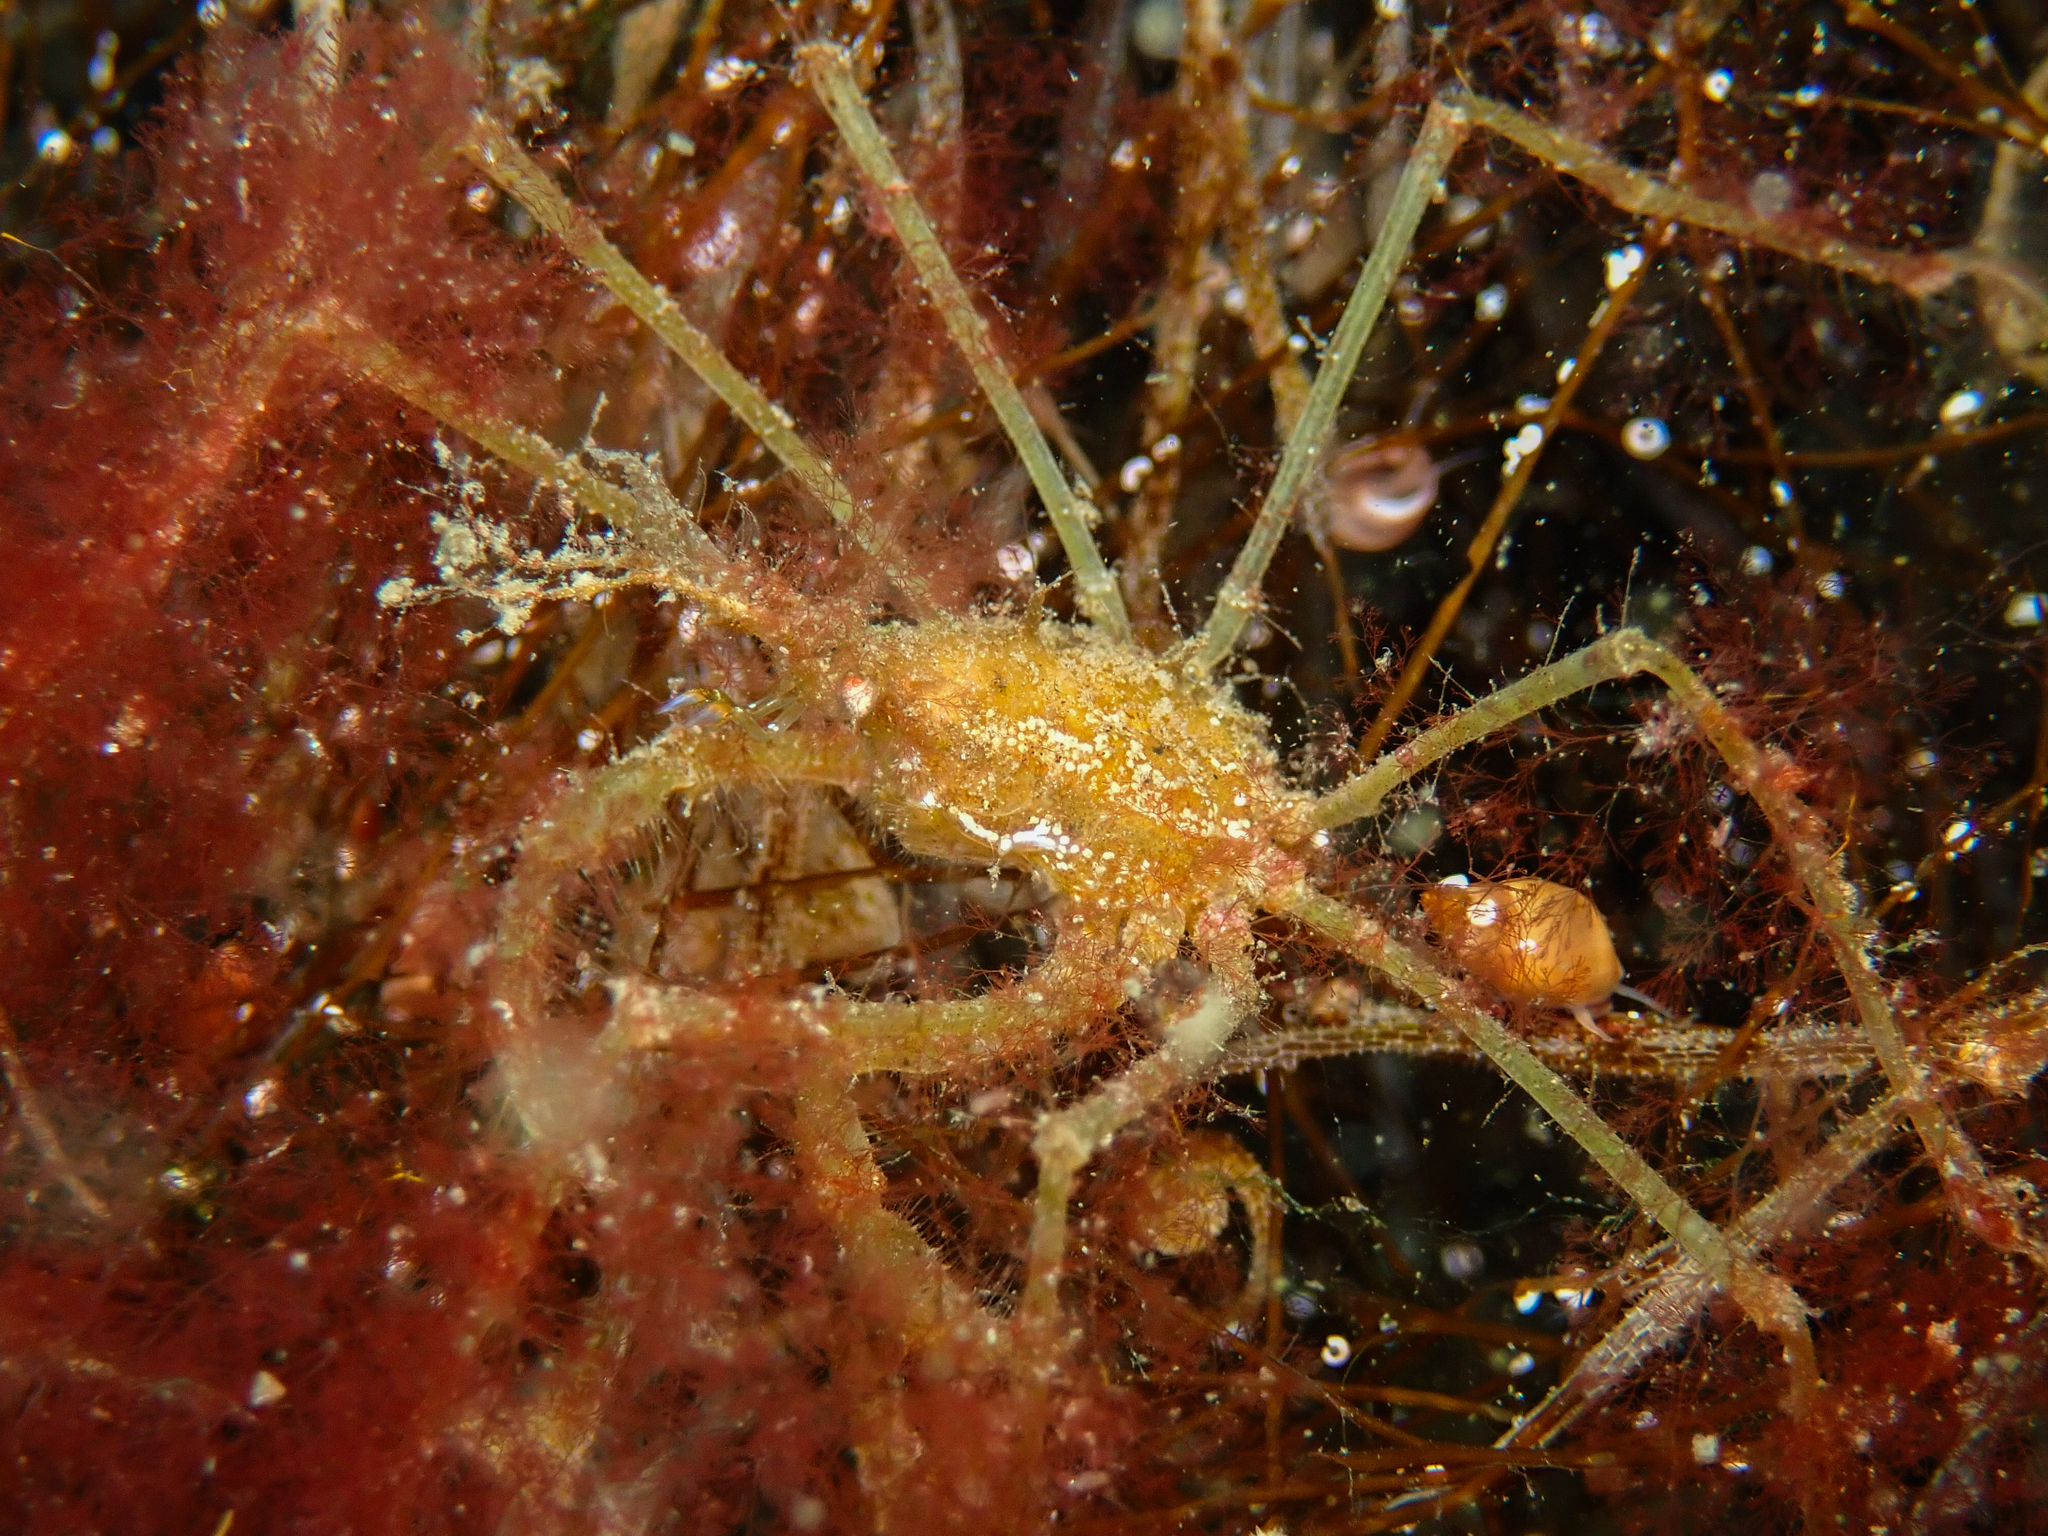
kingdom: Animalia
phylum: Arthropoda
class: Malacostraca
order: Decapoda
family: Inachidae
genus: Macropodia
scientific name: Macropodia rostrata
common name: Long-legged spider crab
